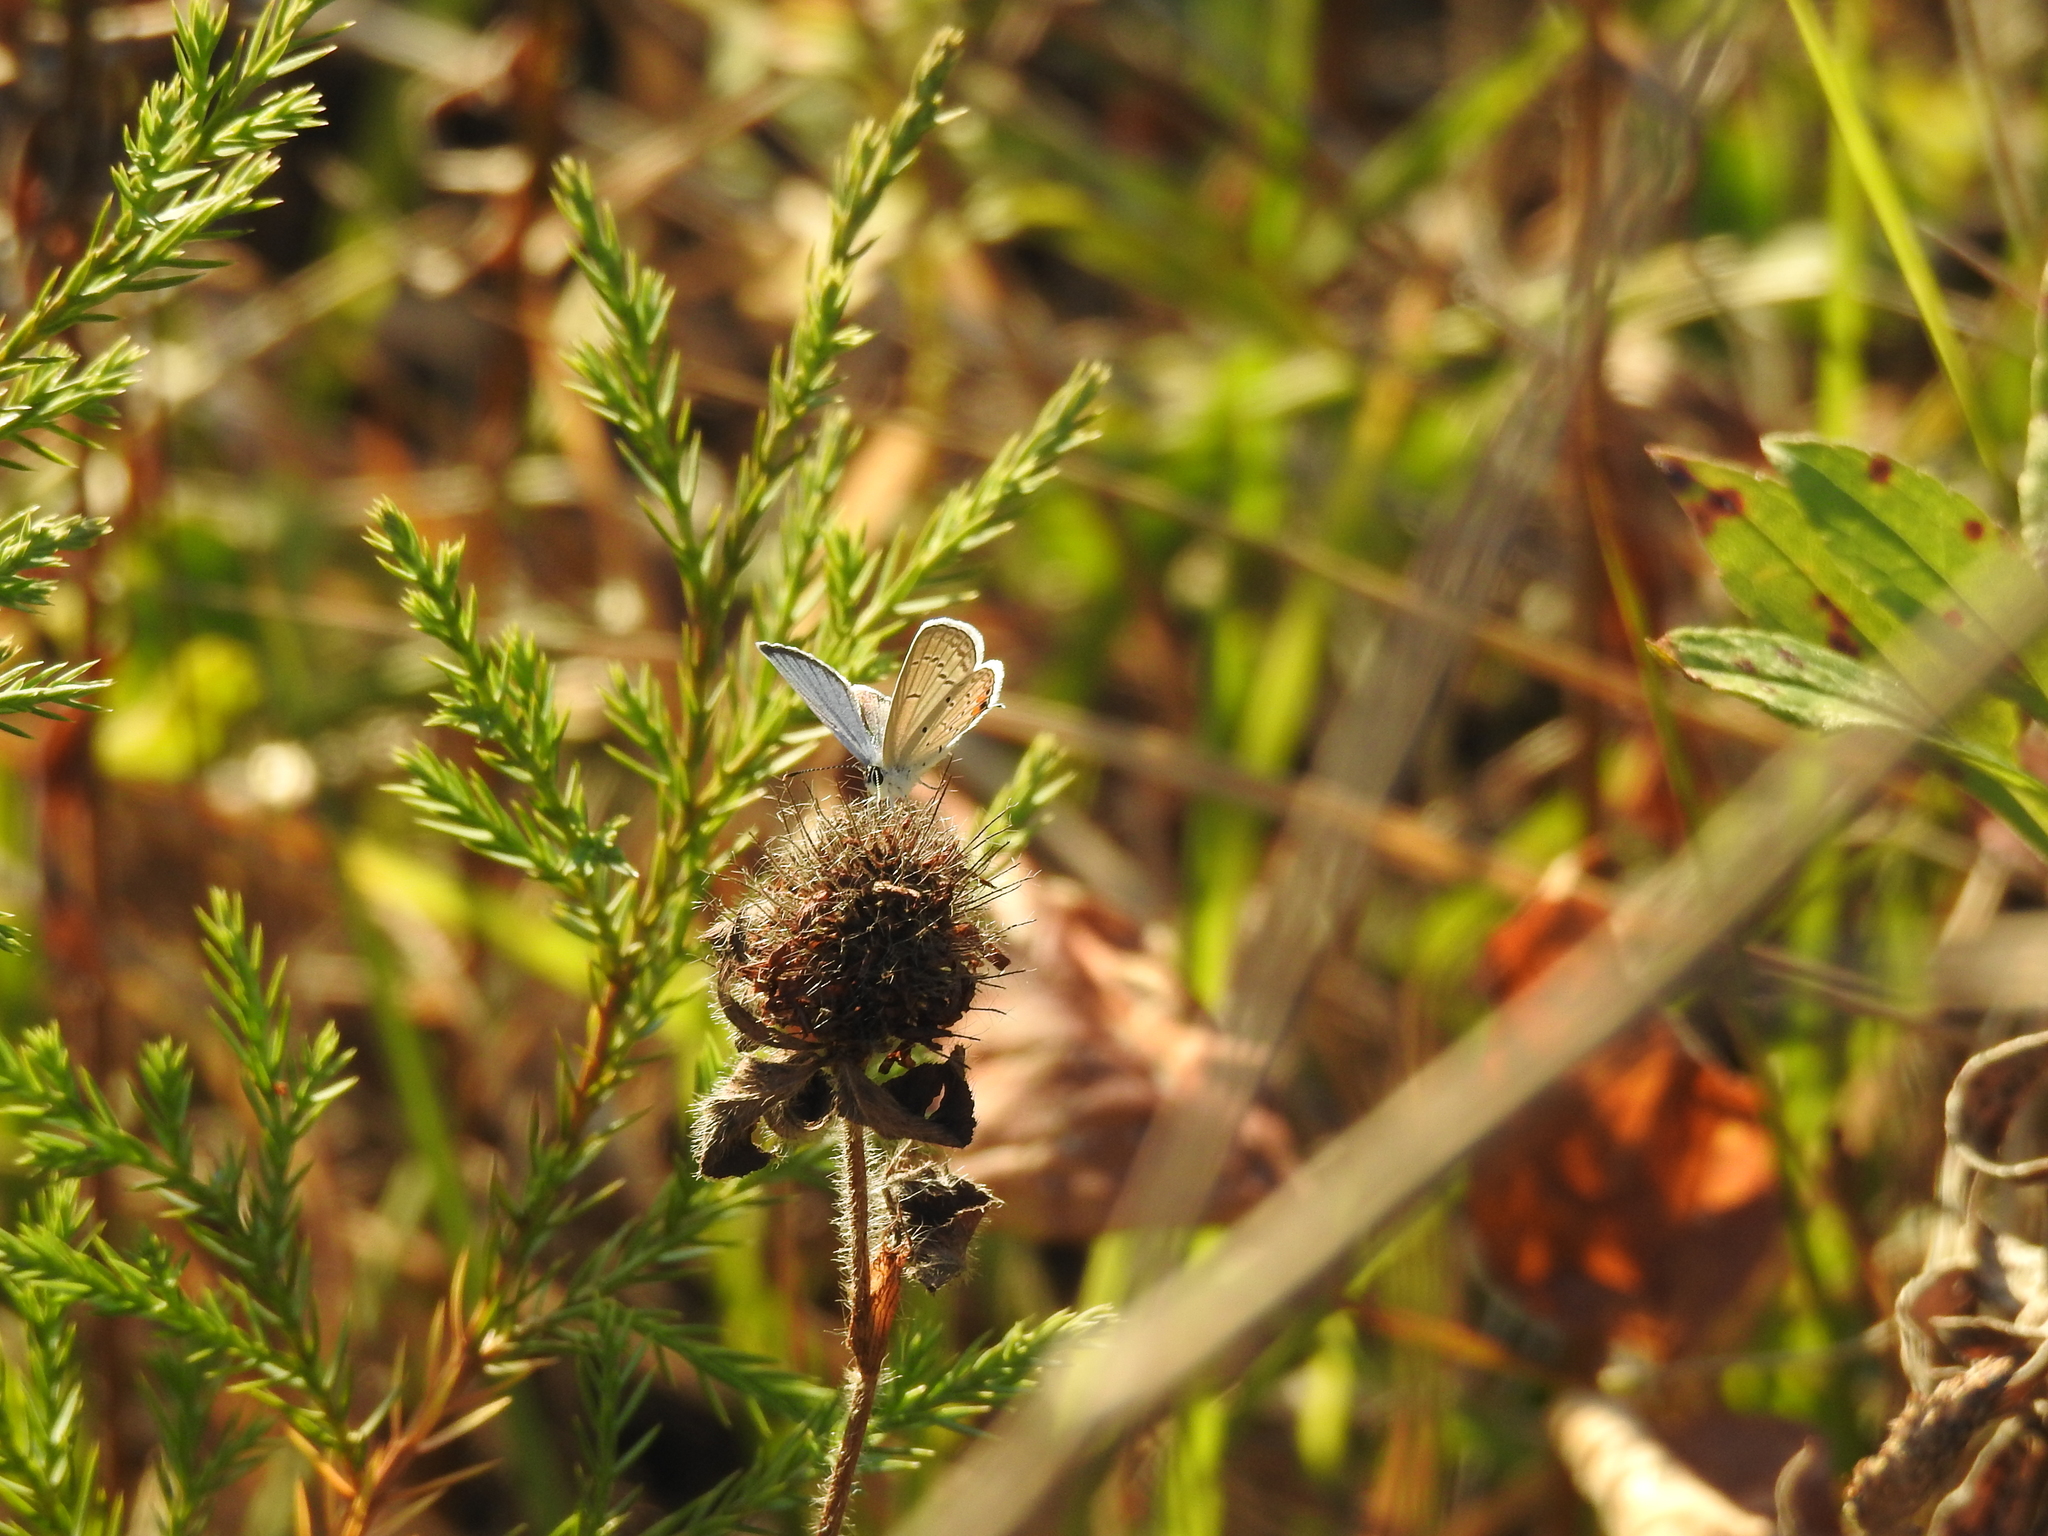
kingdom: Animalia
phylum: Arthropoda
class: Insecta
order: Lepidoptera
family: Lycaenidae
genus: Elkalyce
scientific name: Elkalyce comyntas
